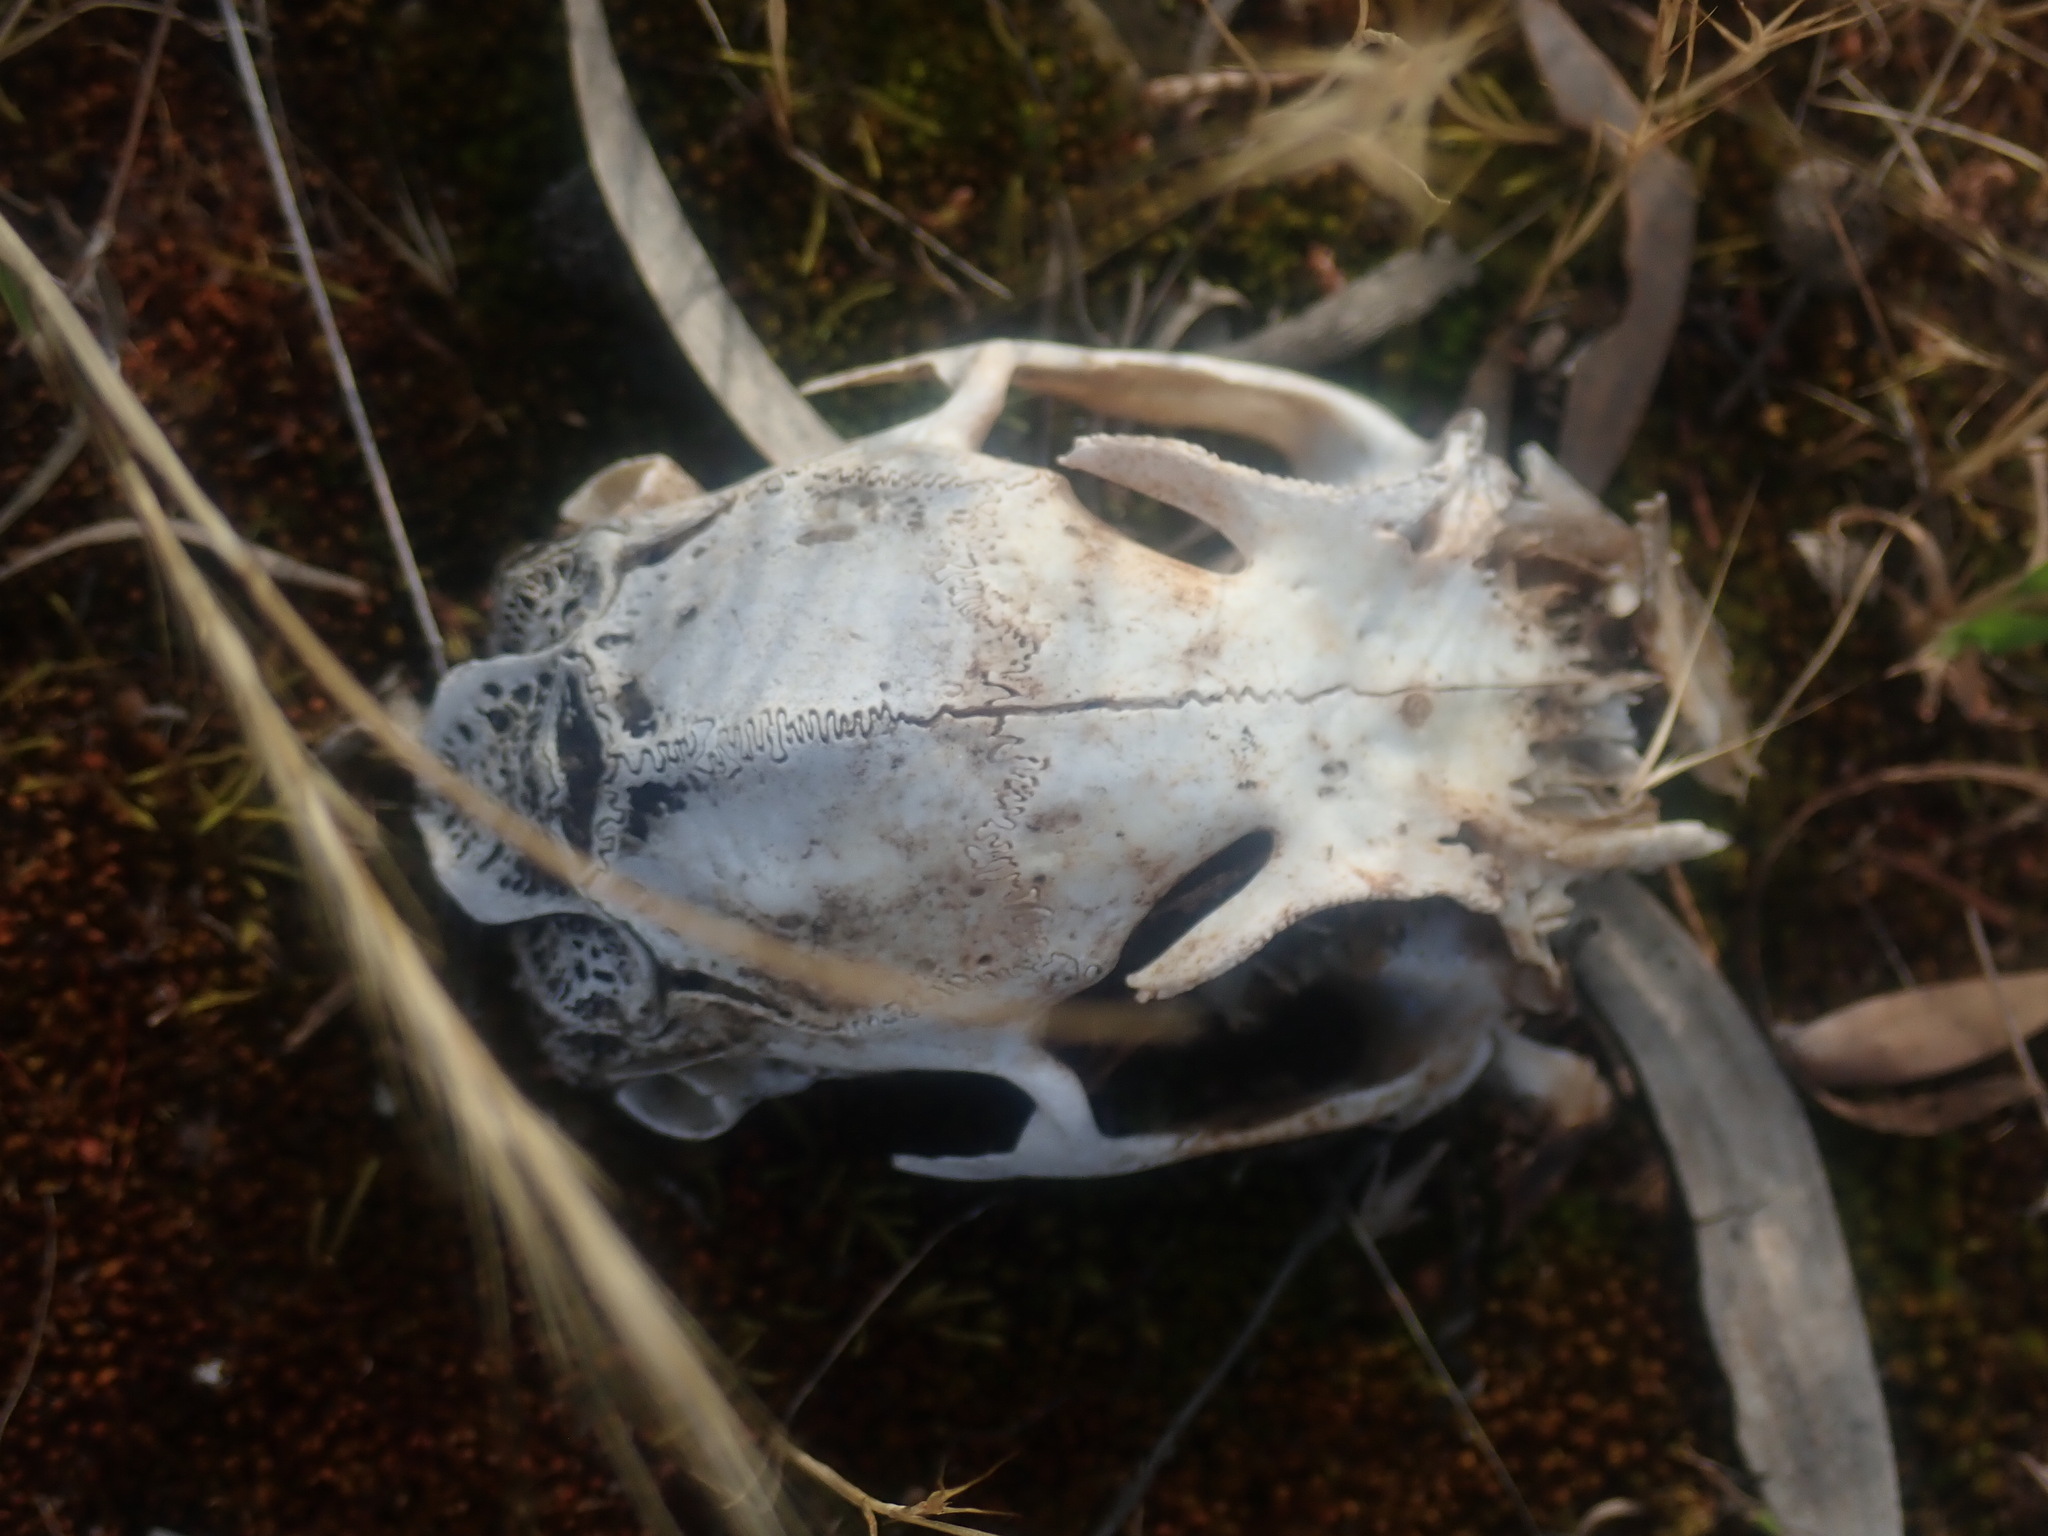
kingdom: Animalia
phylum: Chordata
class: Mammalia
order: Lagomorpha
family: Leporidae
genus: Oryctolagus
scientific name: Oryctolagus cuniculus
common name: European rabbit
